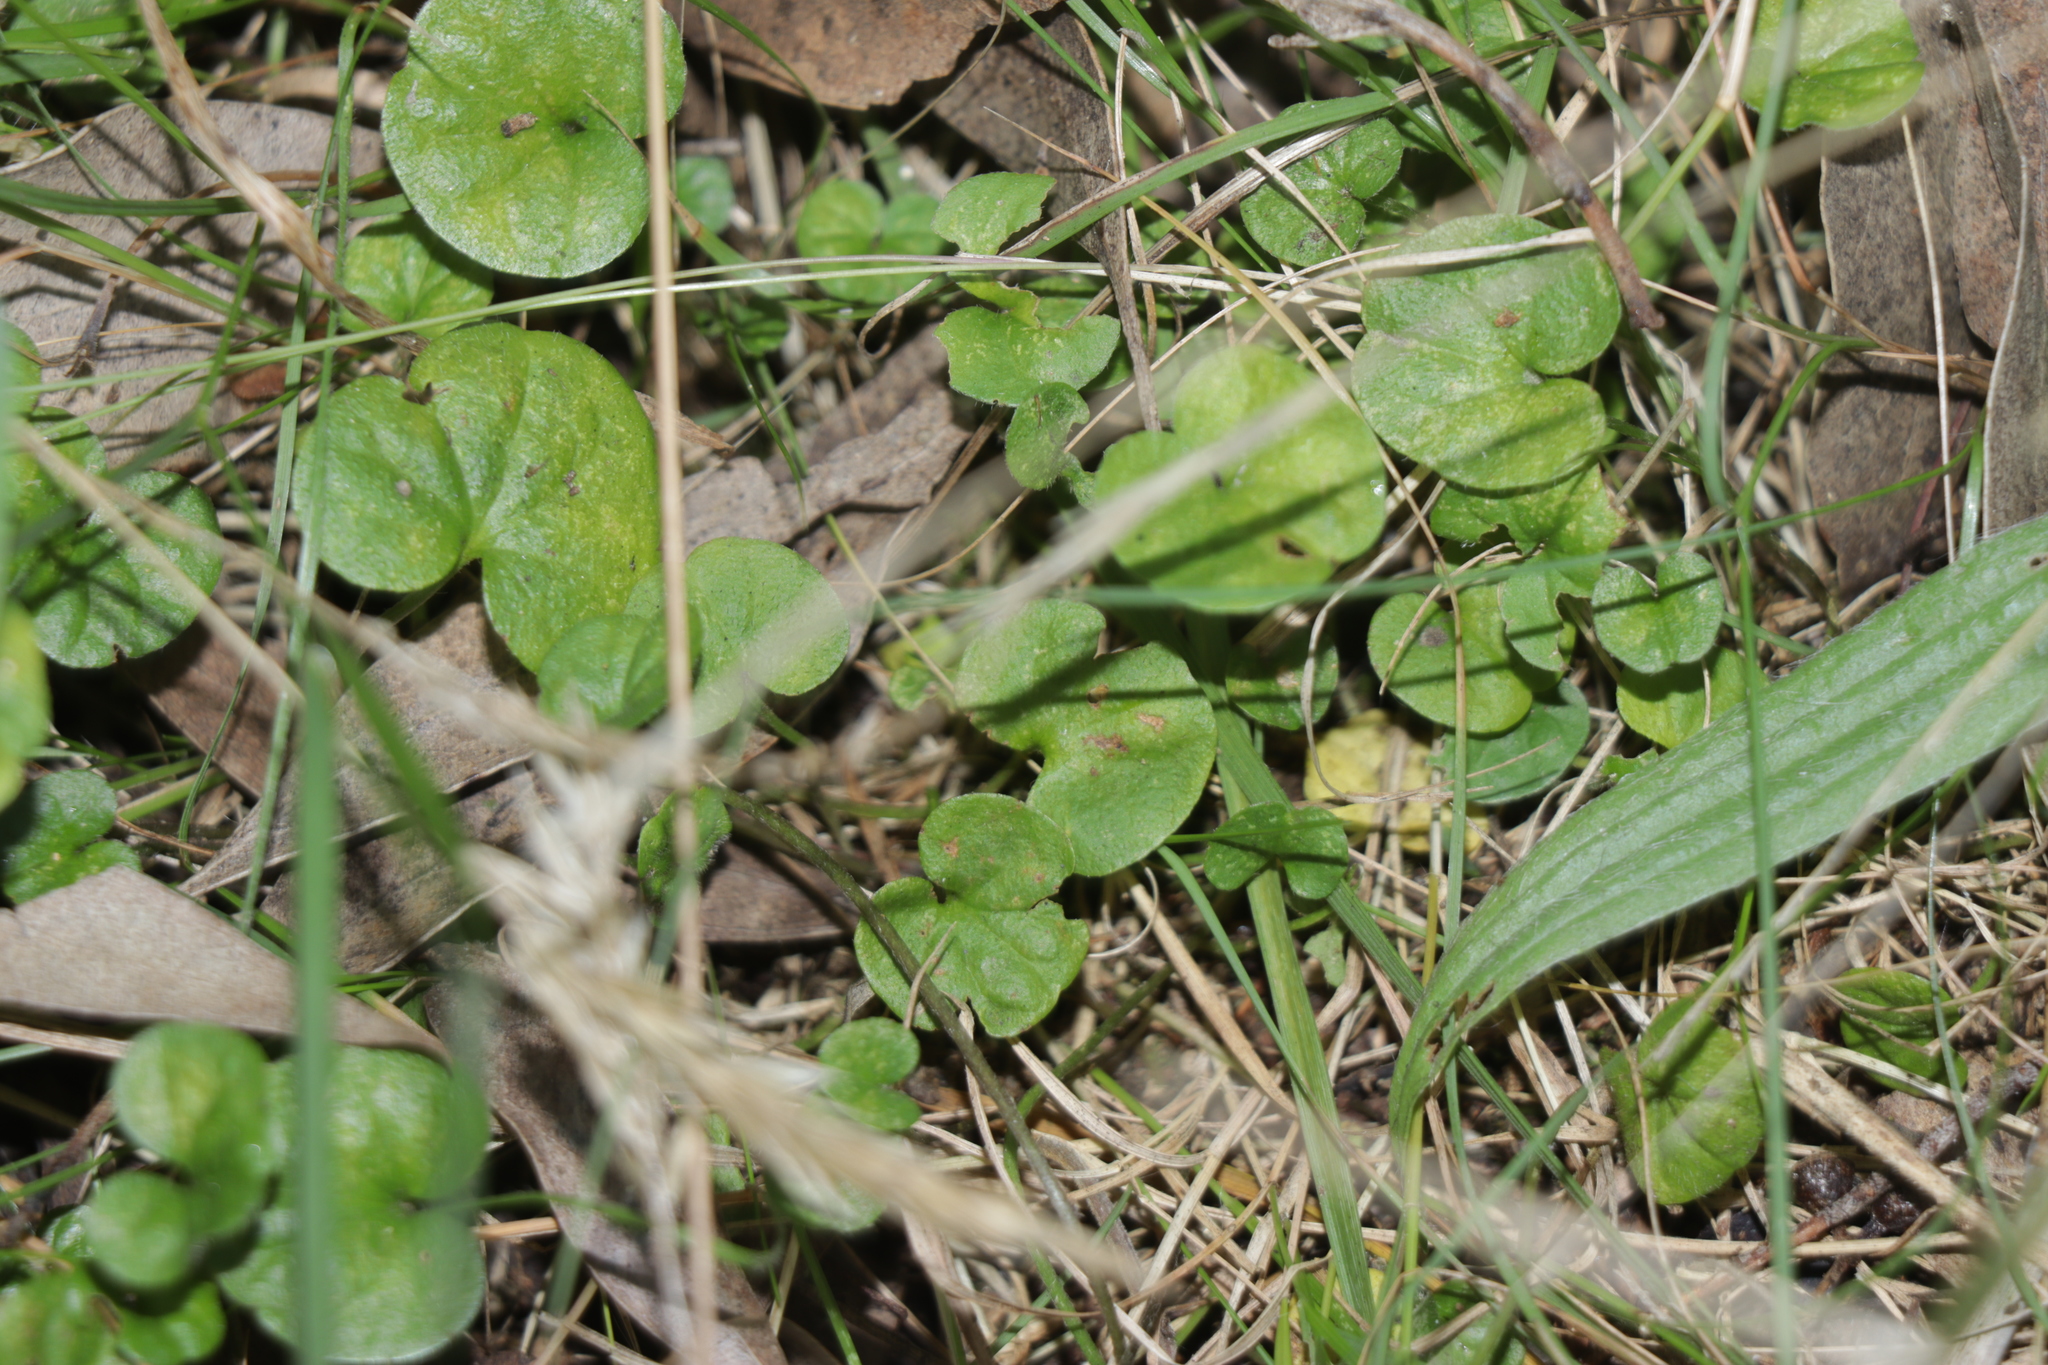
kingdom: Plantae
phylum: Tracheophyta
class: Magnoliopsida
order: Solanales
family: Convolvulaceae
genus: Dichondra
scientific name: Dichondra repens
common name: Kidneyweed
